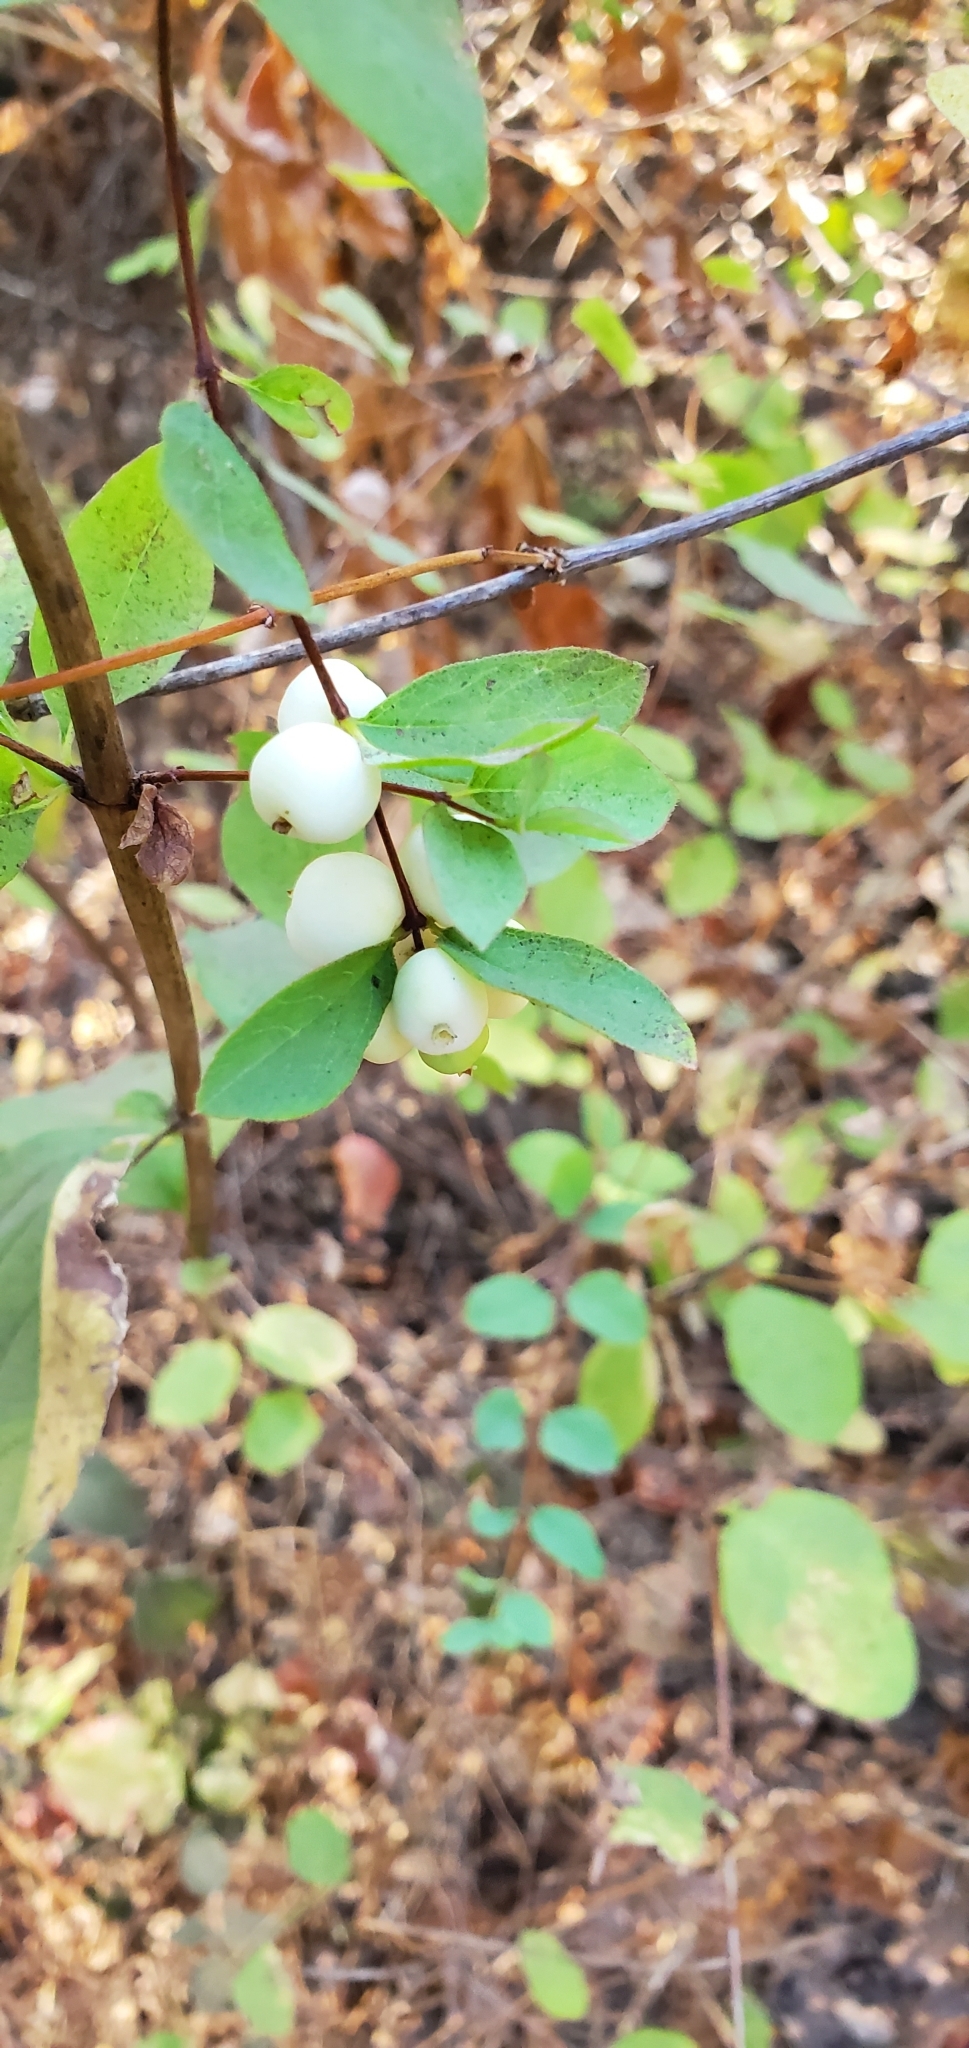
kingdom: Plantae
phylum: Tracheophyta
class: Magnoliopsida
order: Dipsacales
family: Caprifoliaceae
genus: Symphoricarpos
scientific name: Symphoricarpos albus
